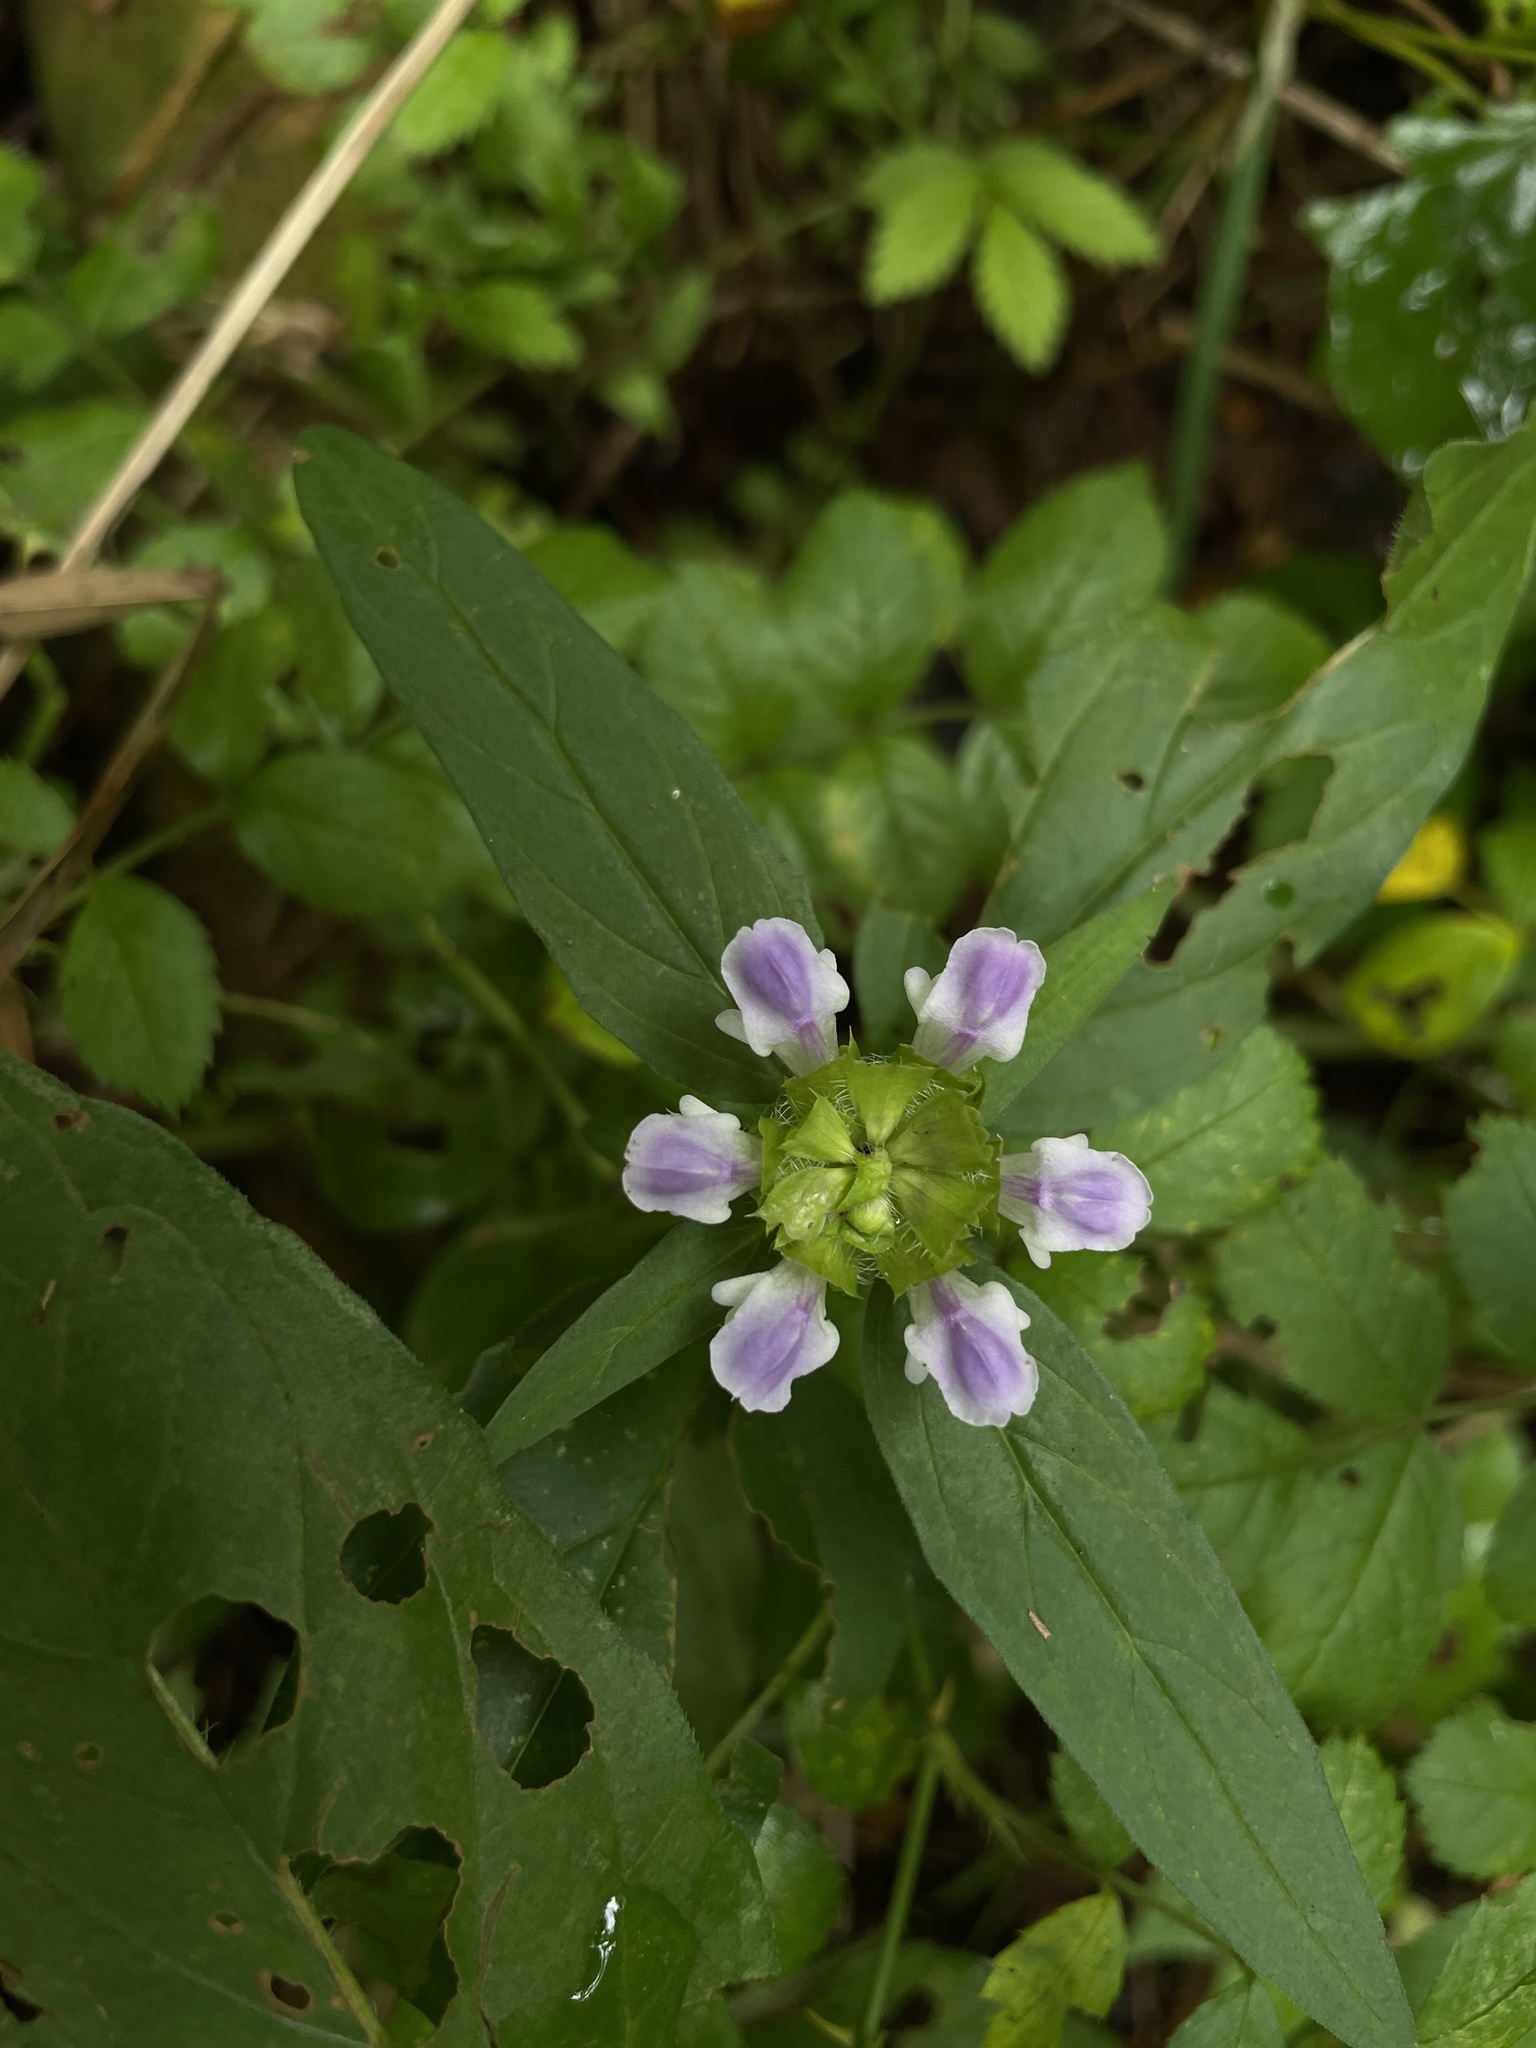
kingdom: Plantae
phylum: Tracheophyta
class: Magnoliopsida
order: Lamiales
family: Lamiaceae
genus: Prunella
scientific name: Prunella vulgaris
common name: Heal-all
